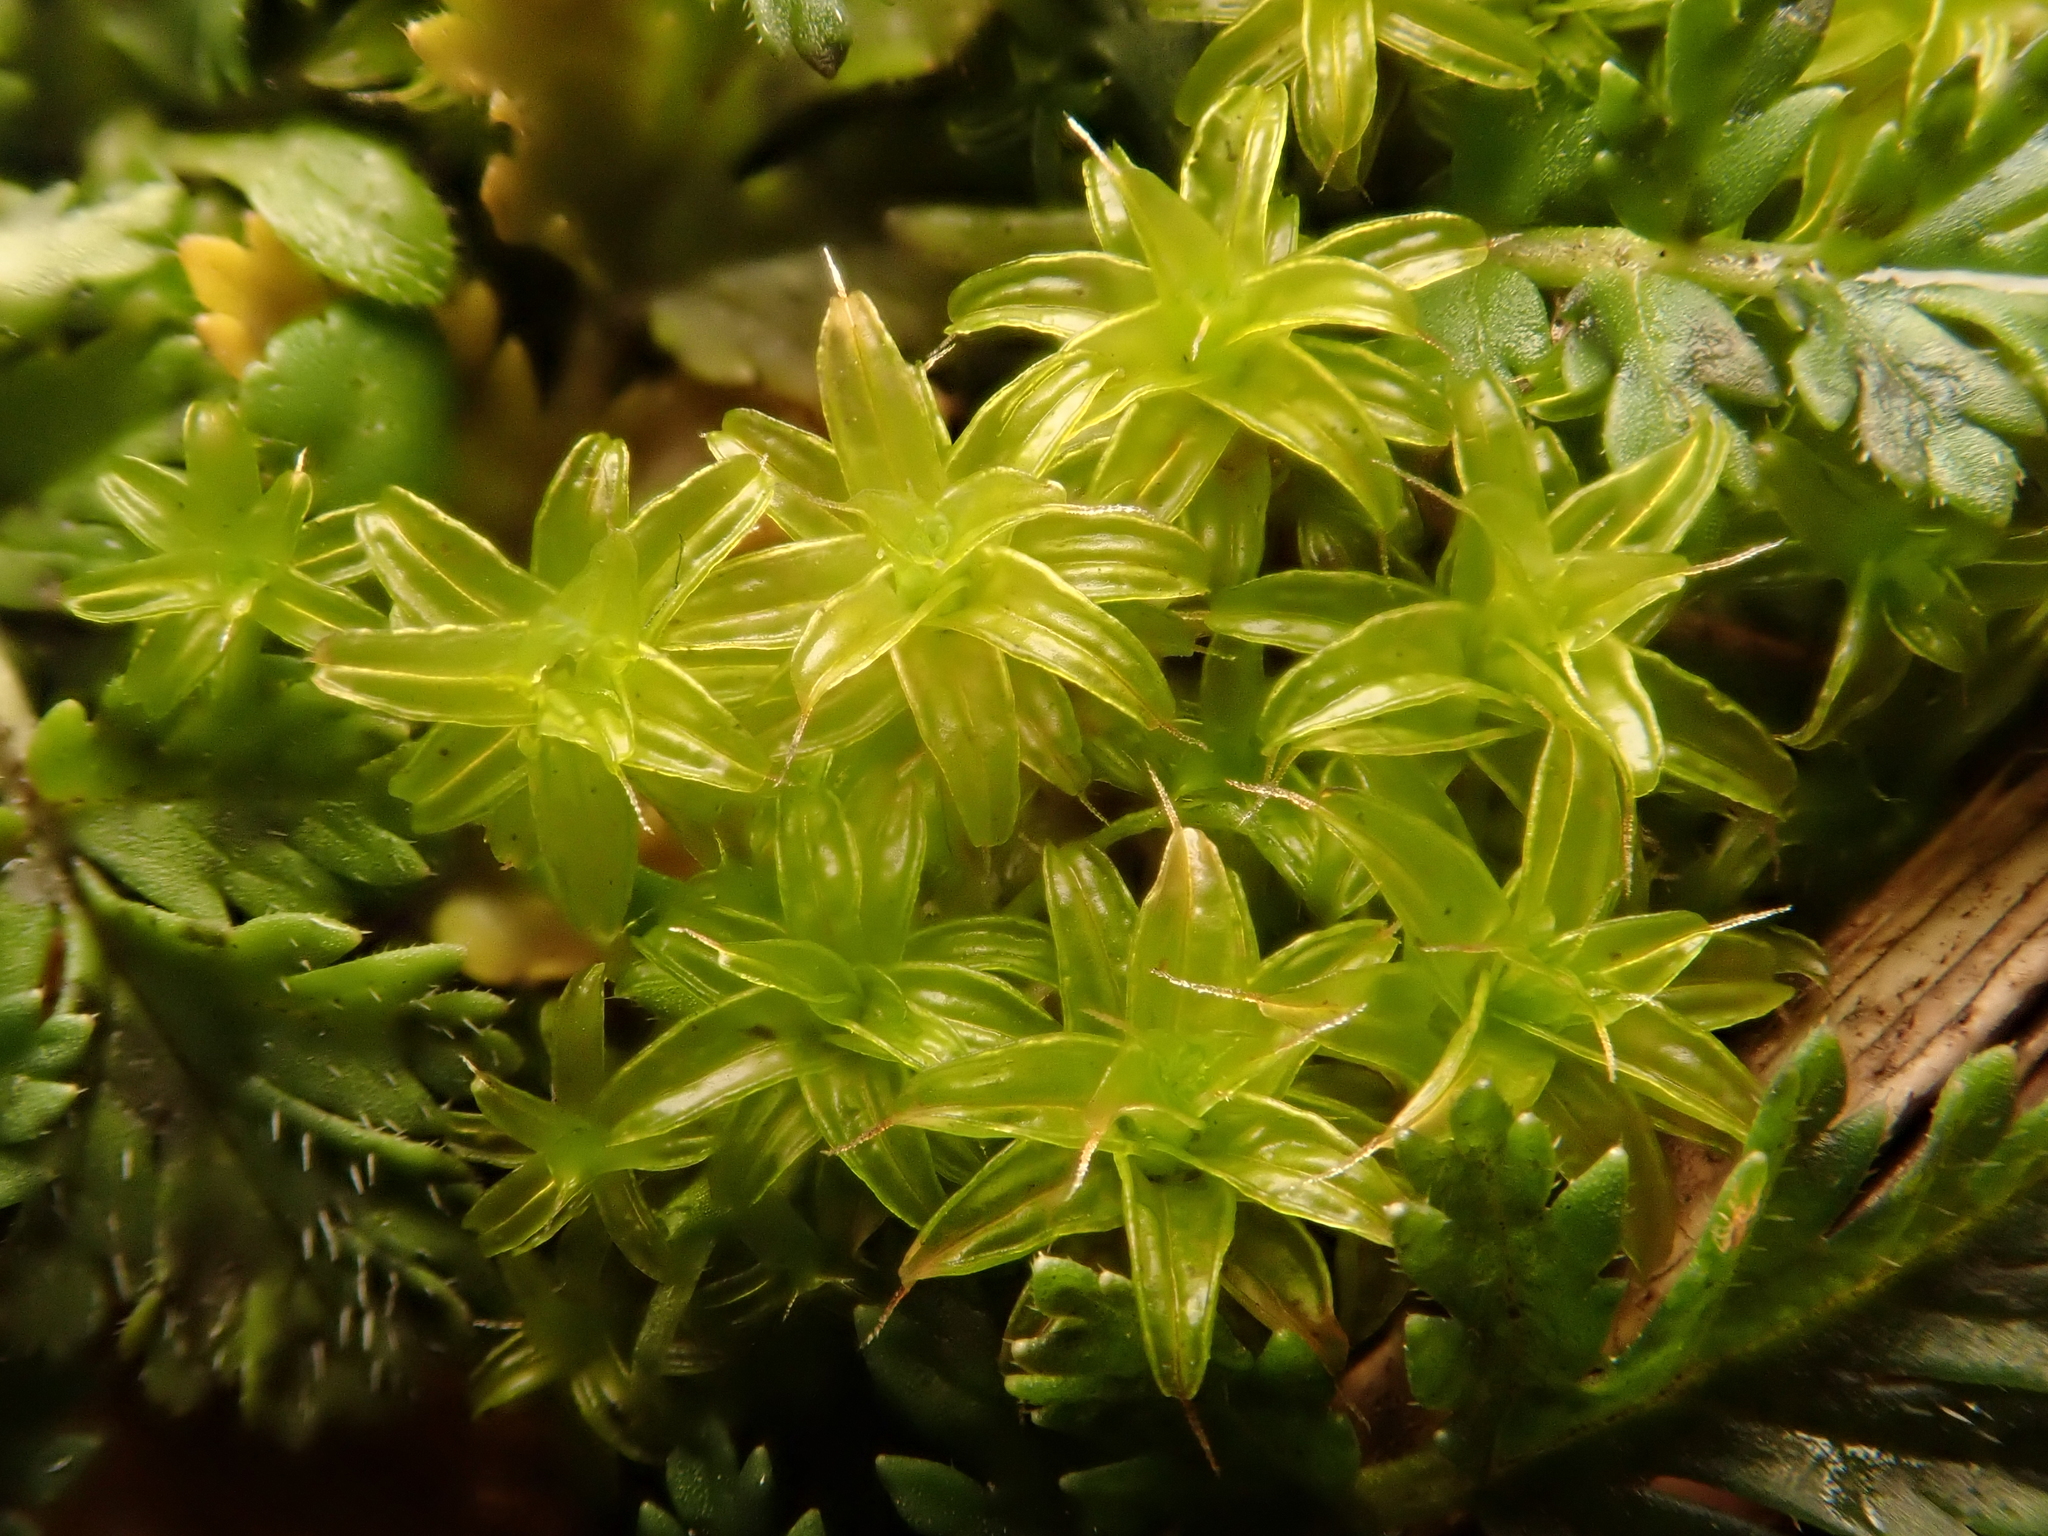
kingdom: Plantae
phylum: Bryophyta
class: Bryopsida
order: Pottiales
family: Pottiaceae
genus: Syntrichia
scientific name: Syntrichia ruralis
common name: Sidewalk screw moss
